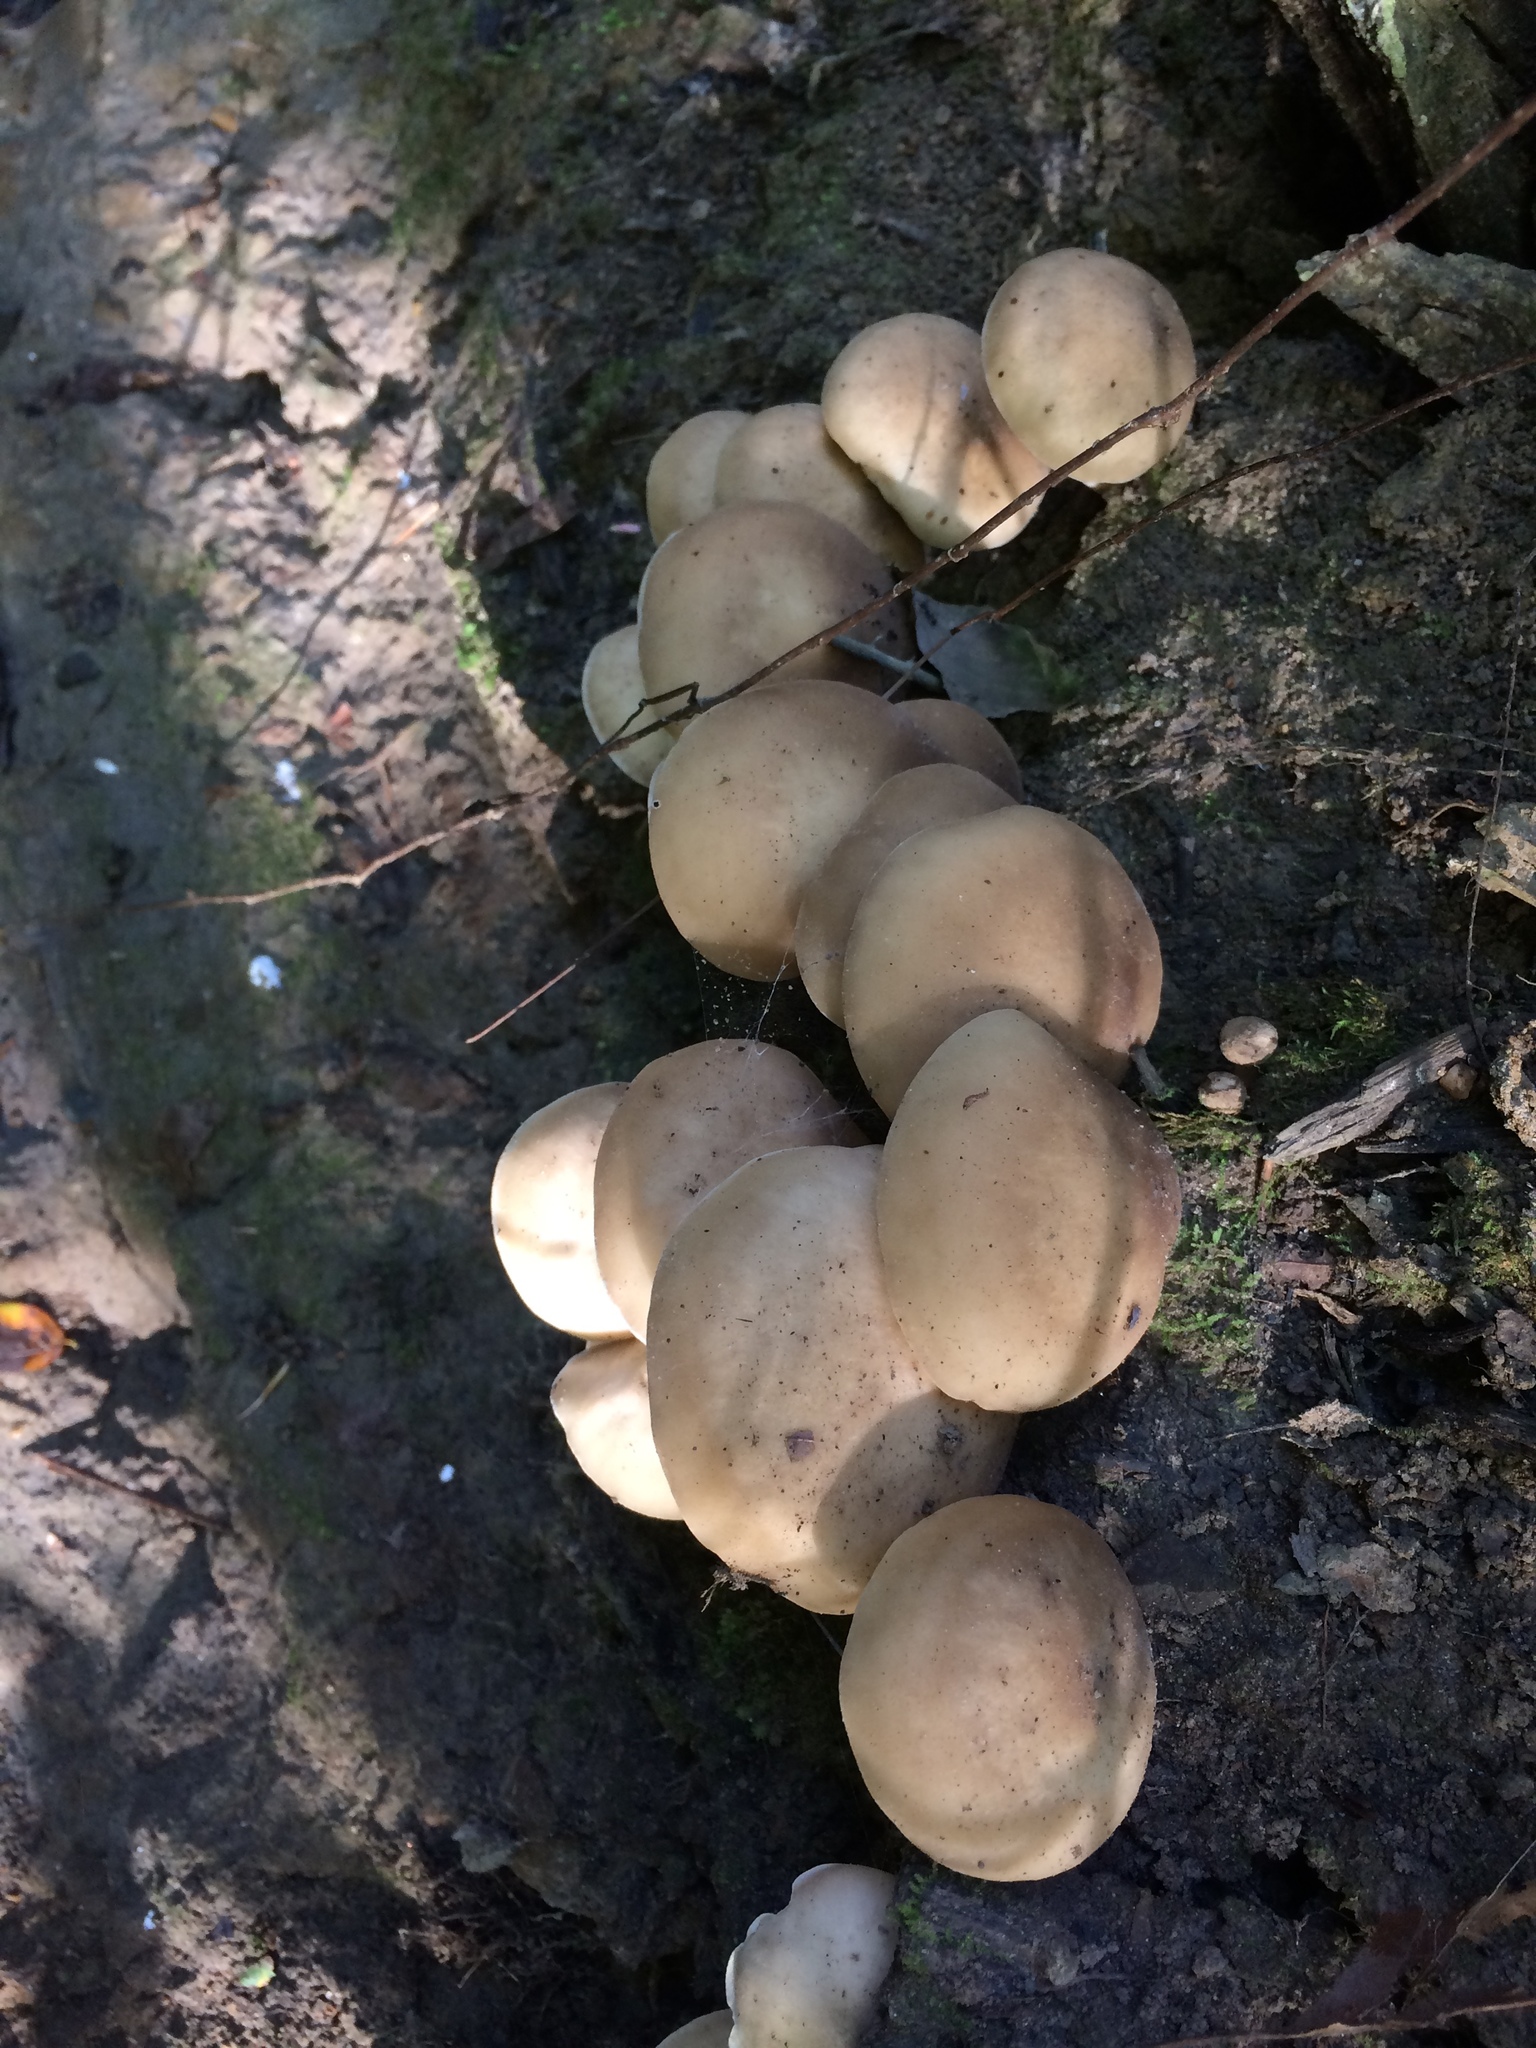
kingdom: Fungi
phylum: Basidiomycota
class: Agaricomycetes
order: Agaricales
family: Lyophyllaceae
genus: Lyophyllum
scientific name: Lyophyllum decastes
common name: Clustered domecap
